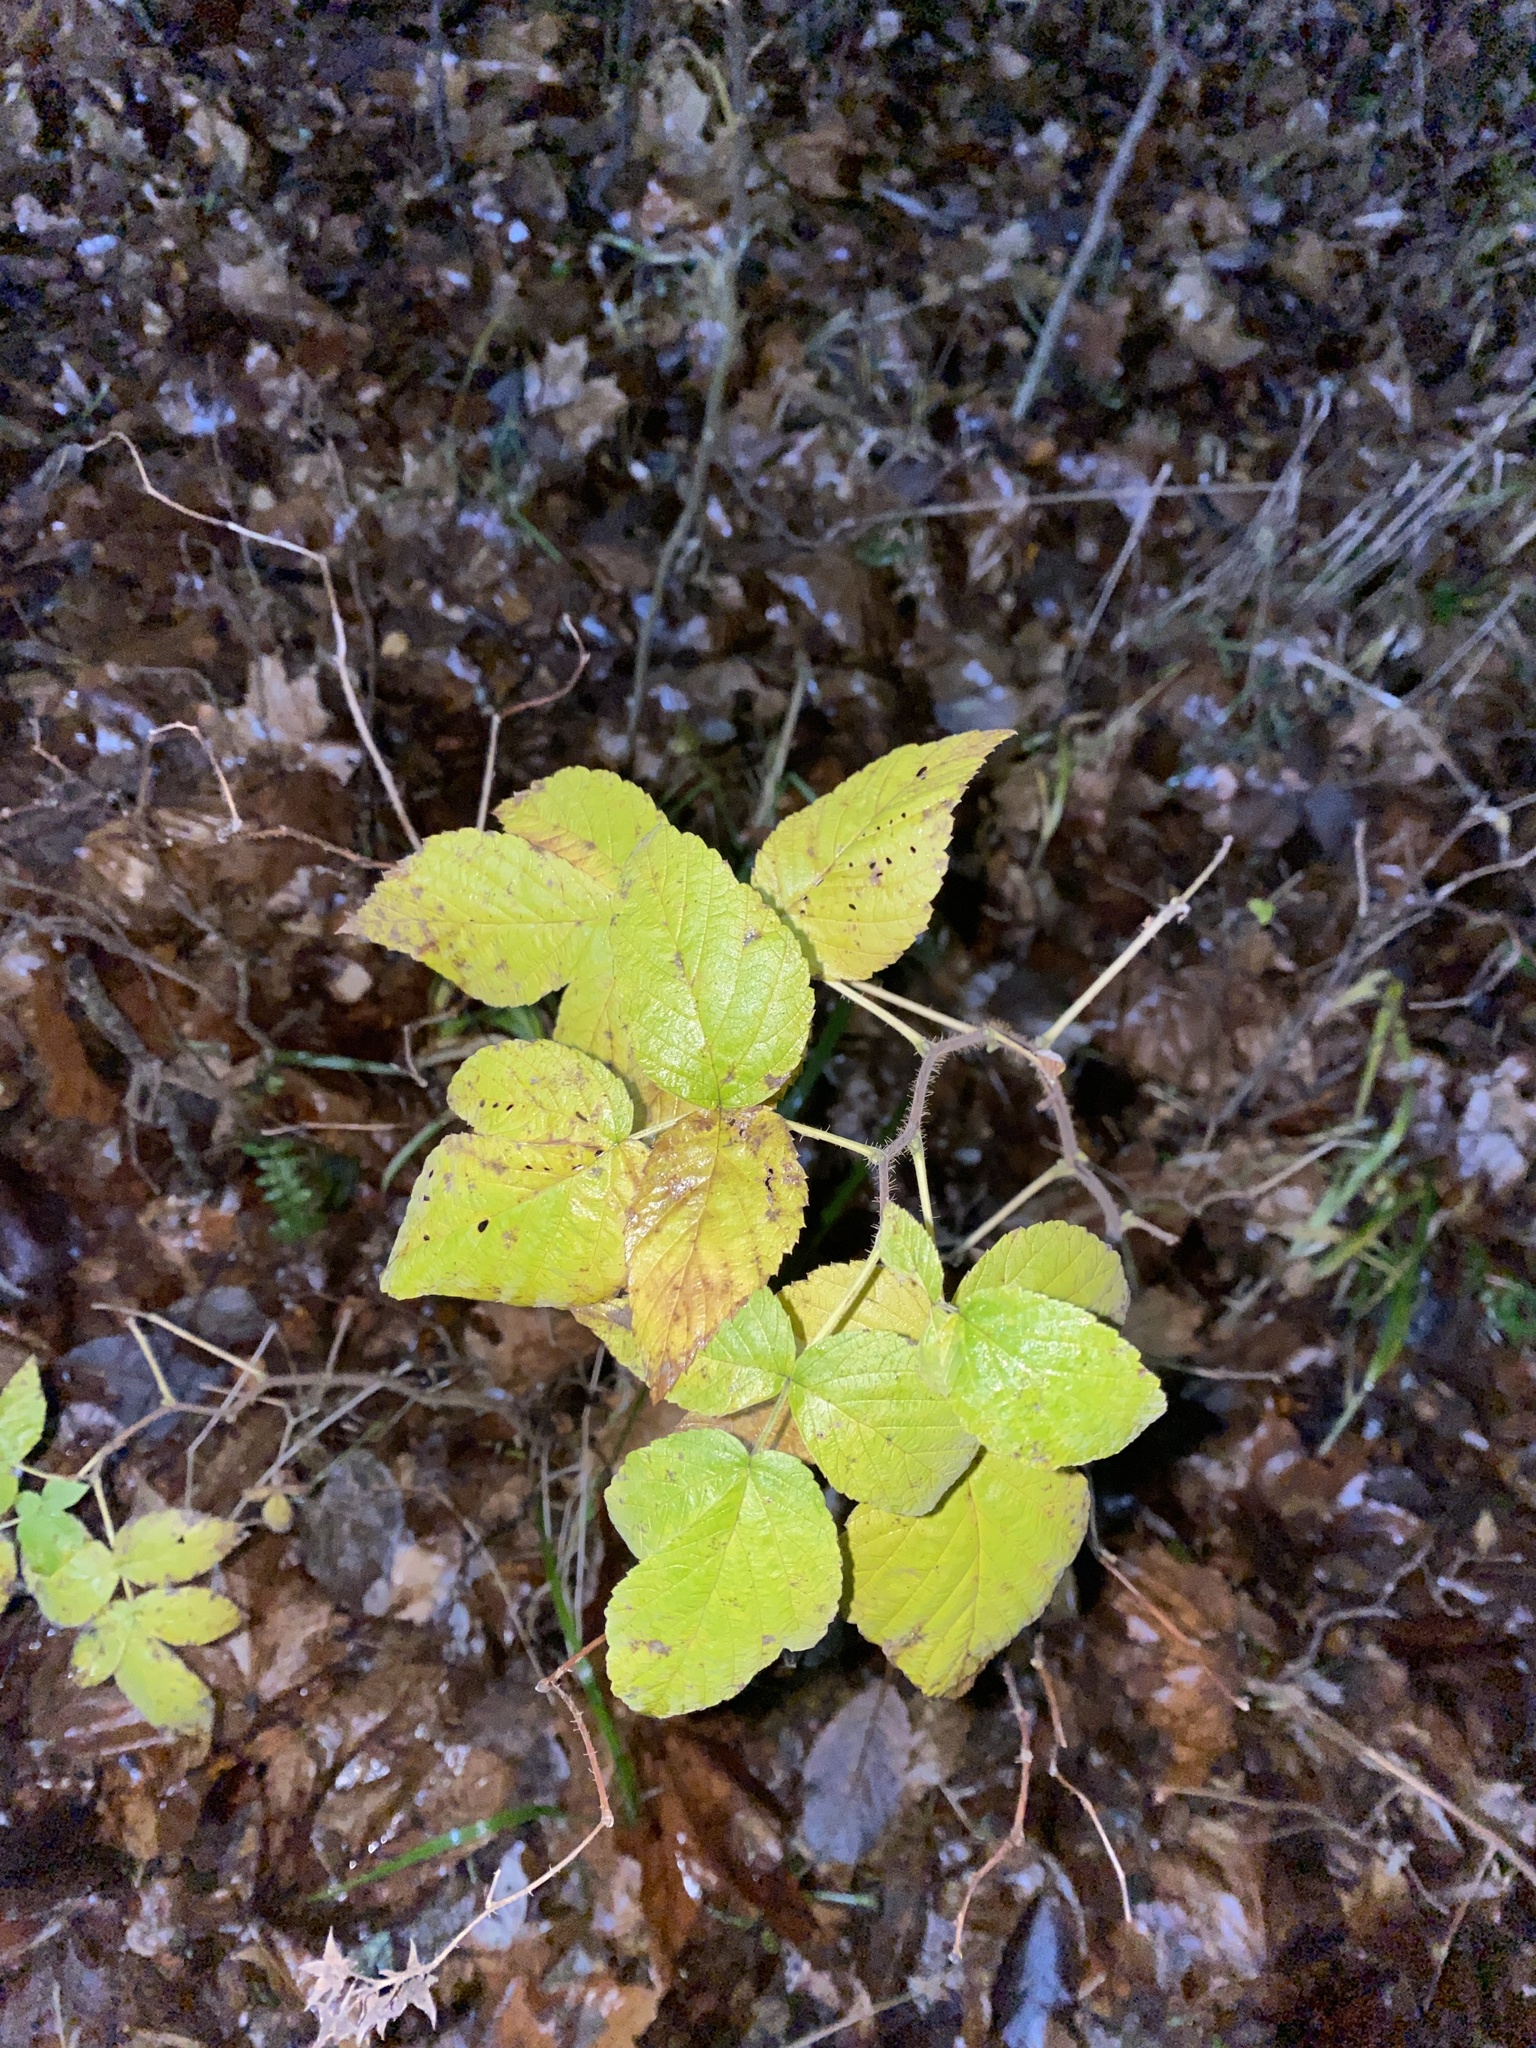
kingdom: Plantae
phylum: Tracheophyta
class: Magnoliopsida
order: Rosales
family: Rosaceae
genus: Rubus
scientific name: Rubus idaeus
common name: Raspberry
